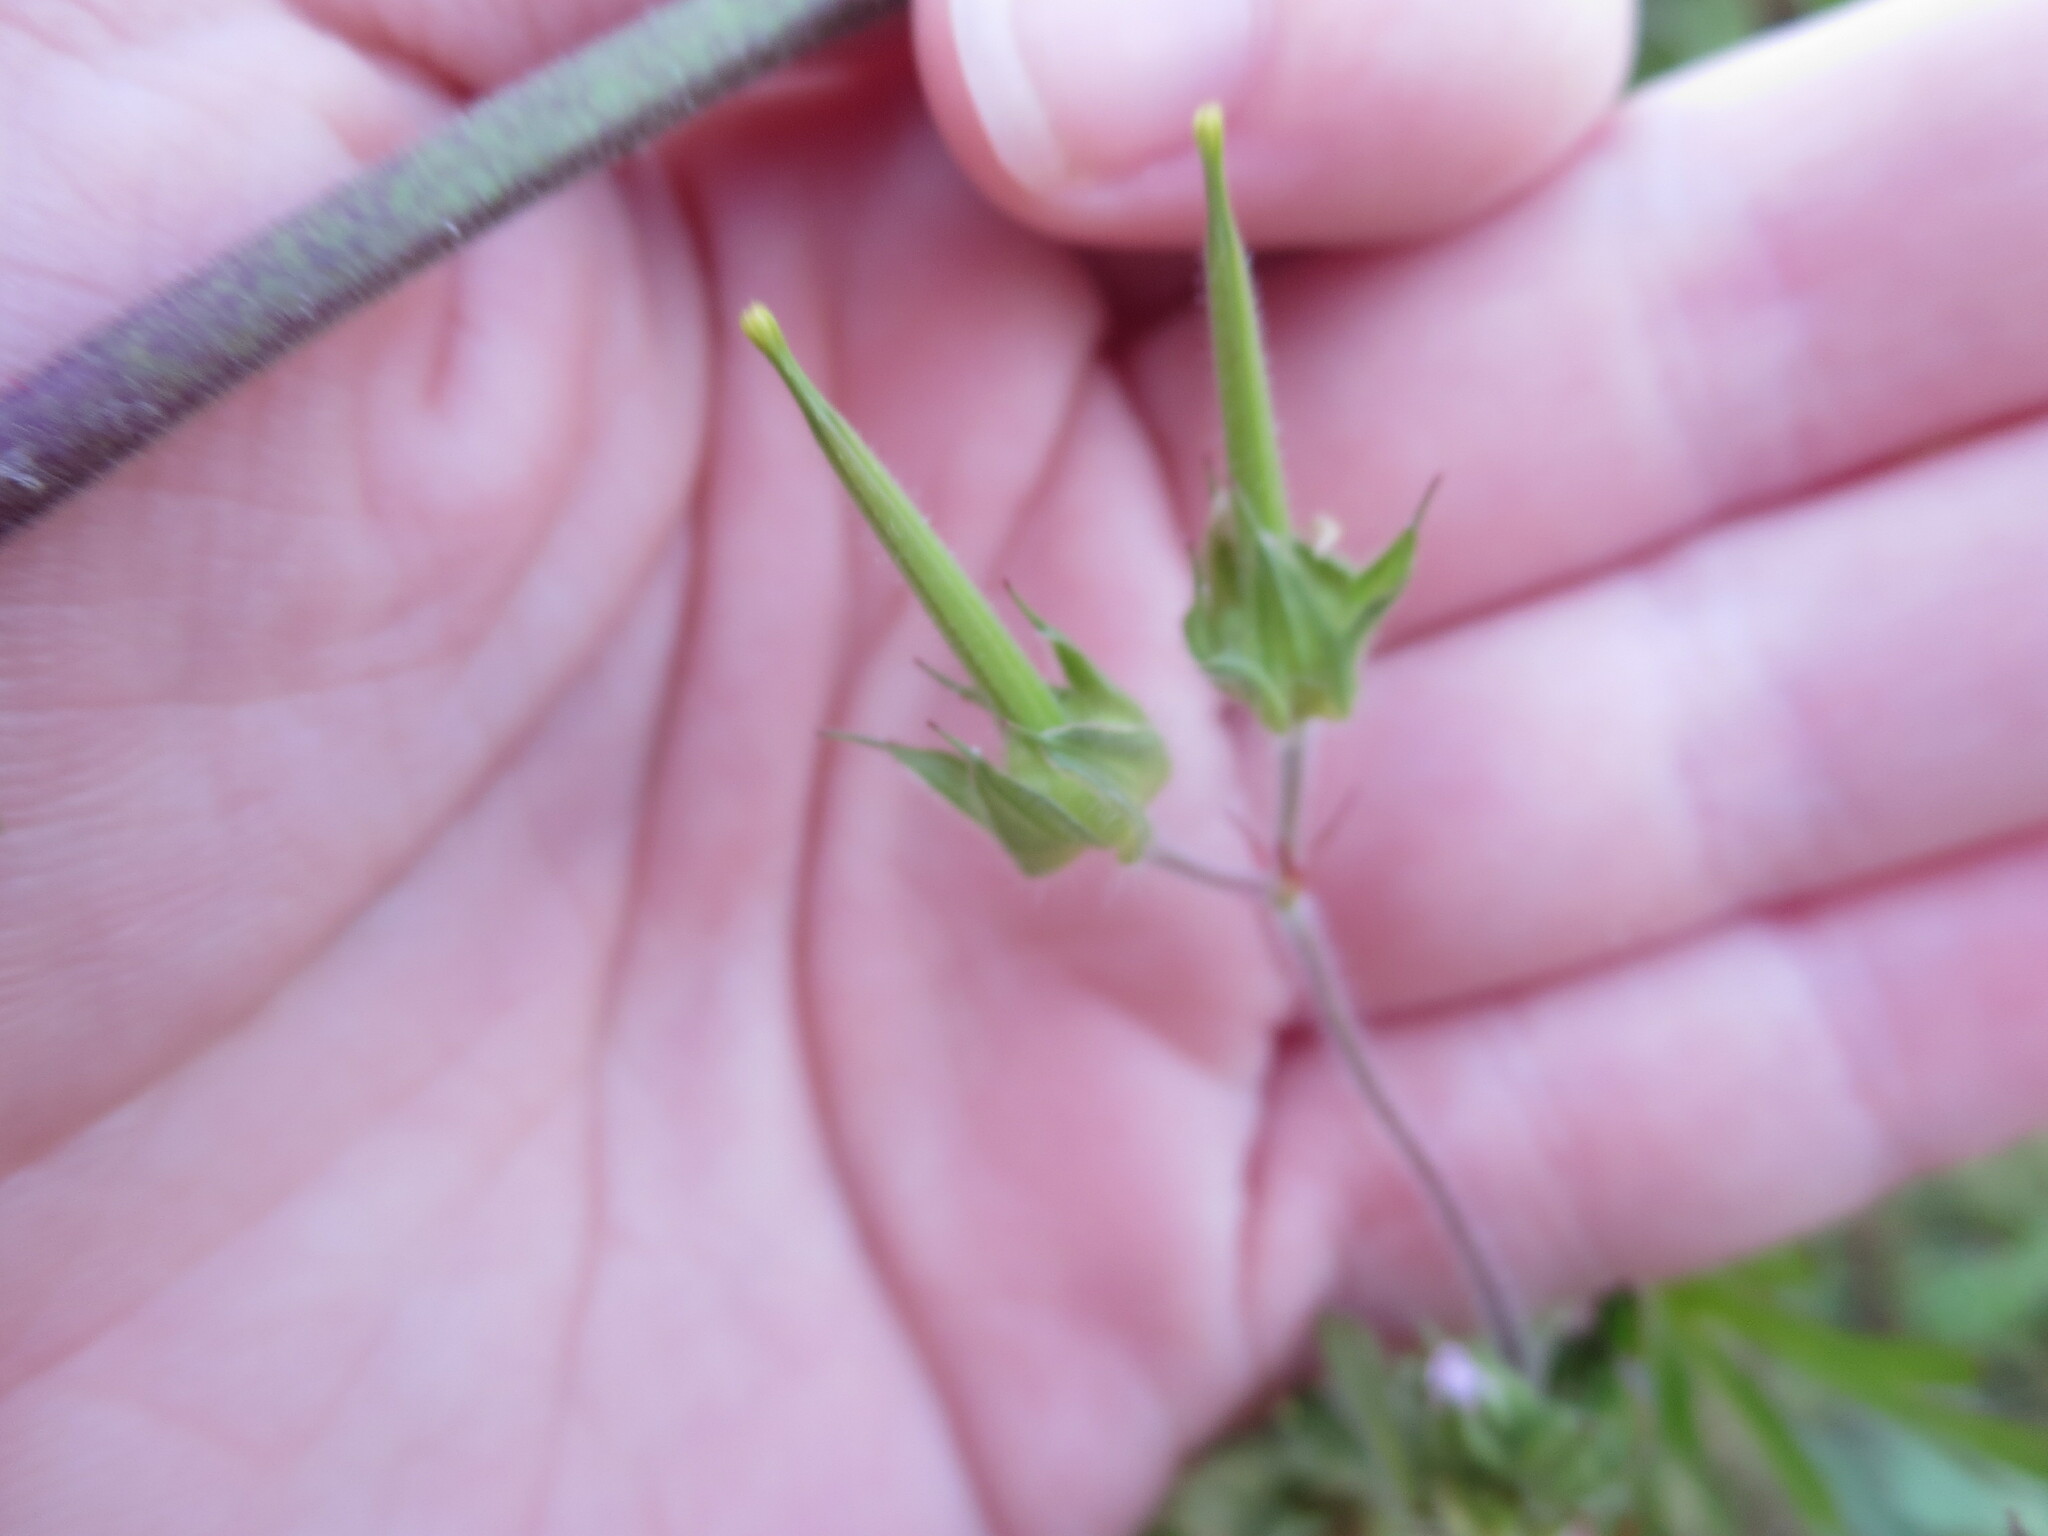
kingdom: Plantae
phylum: Tracheophyta
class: Magnoliopsida
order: Geraniales
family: Geraniaceae
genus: Geranium
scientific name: Geranium carolinianum
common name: Carolina crane's-bill
